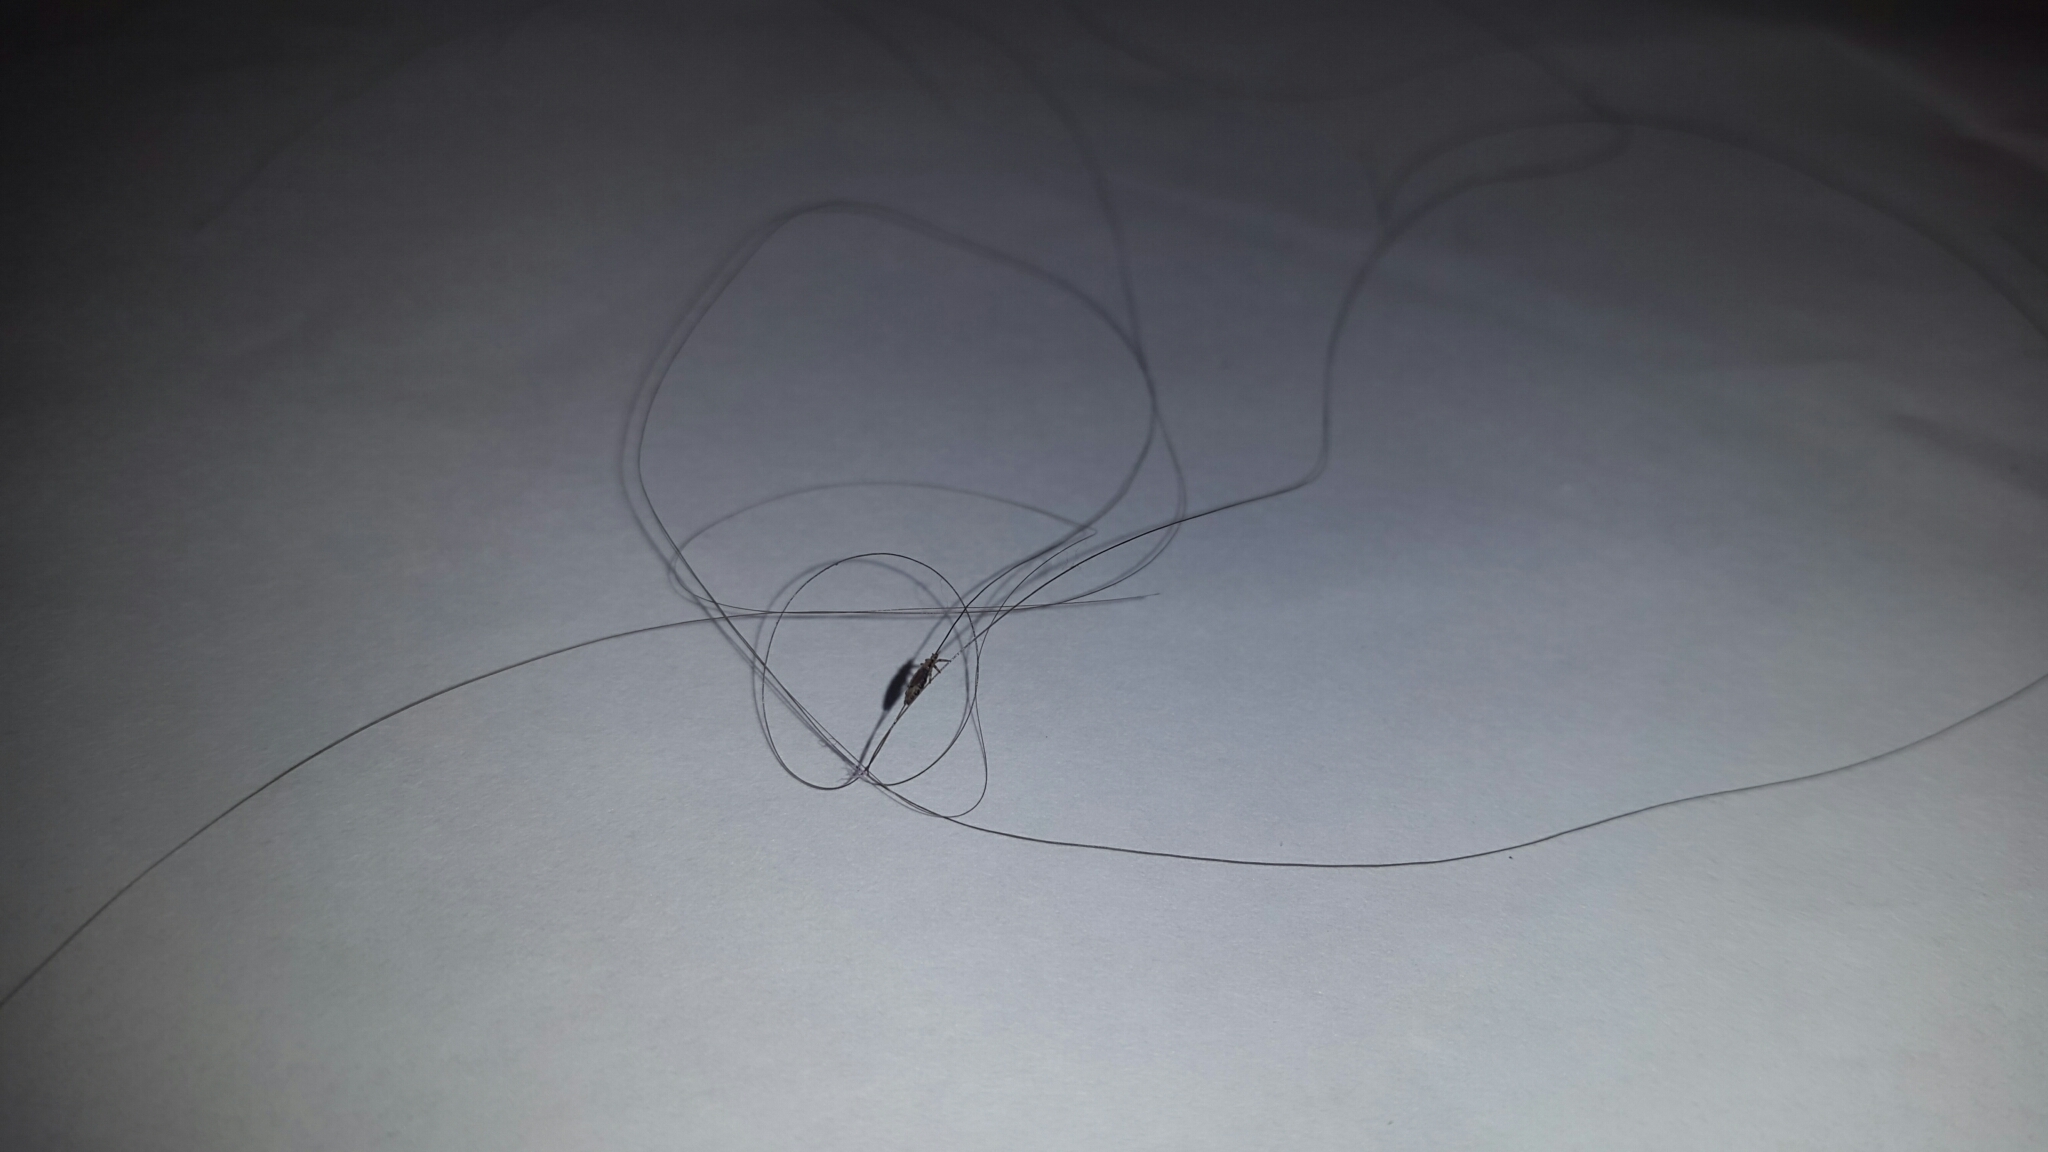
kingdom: Animalia
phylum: Arthropoda
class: Insecta
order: Psocodea
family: Pediculidae
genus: Pediculus
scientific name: Pediculus humanus
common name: Body louse
